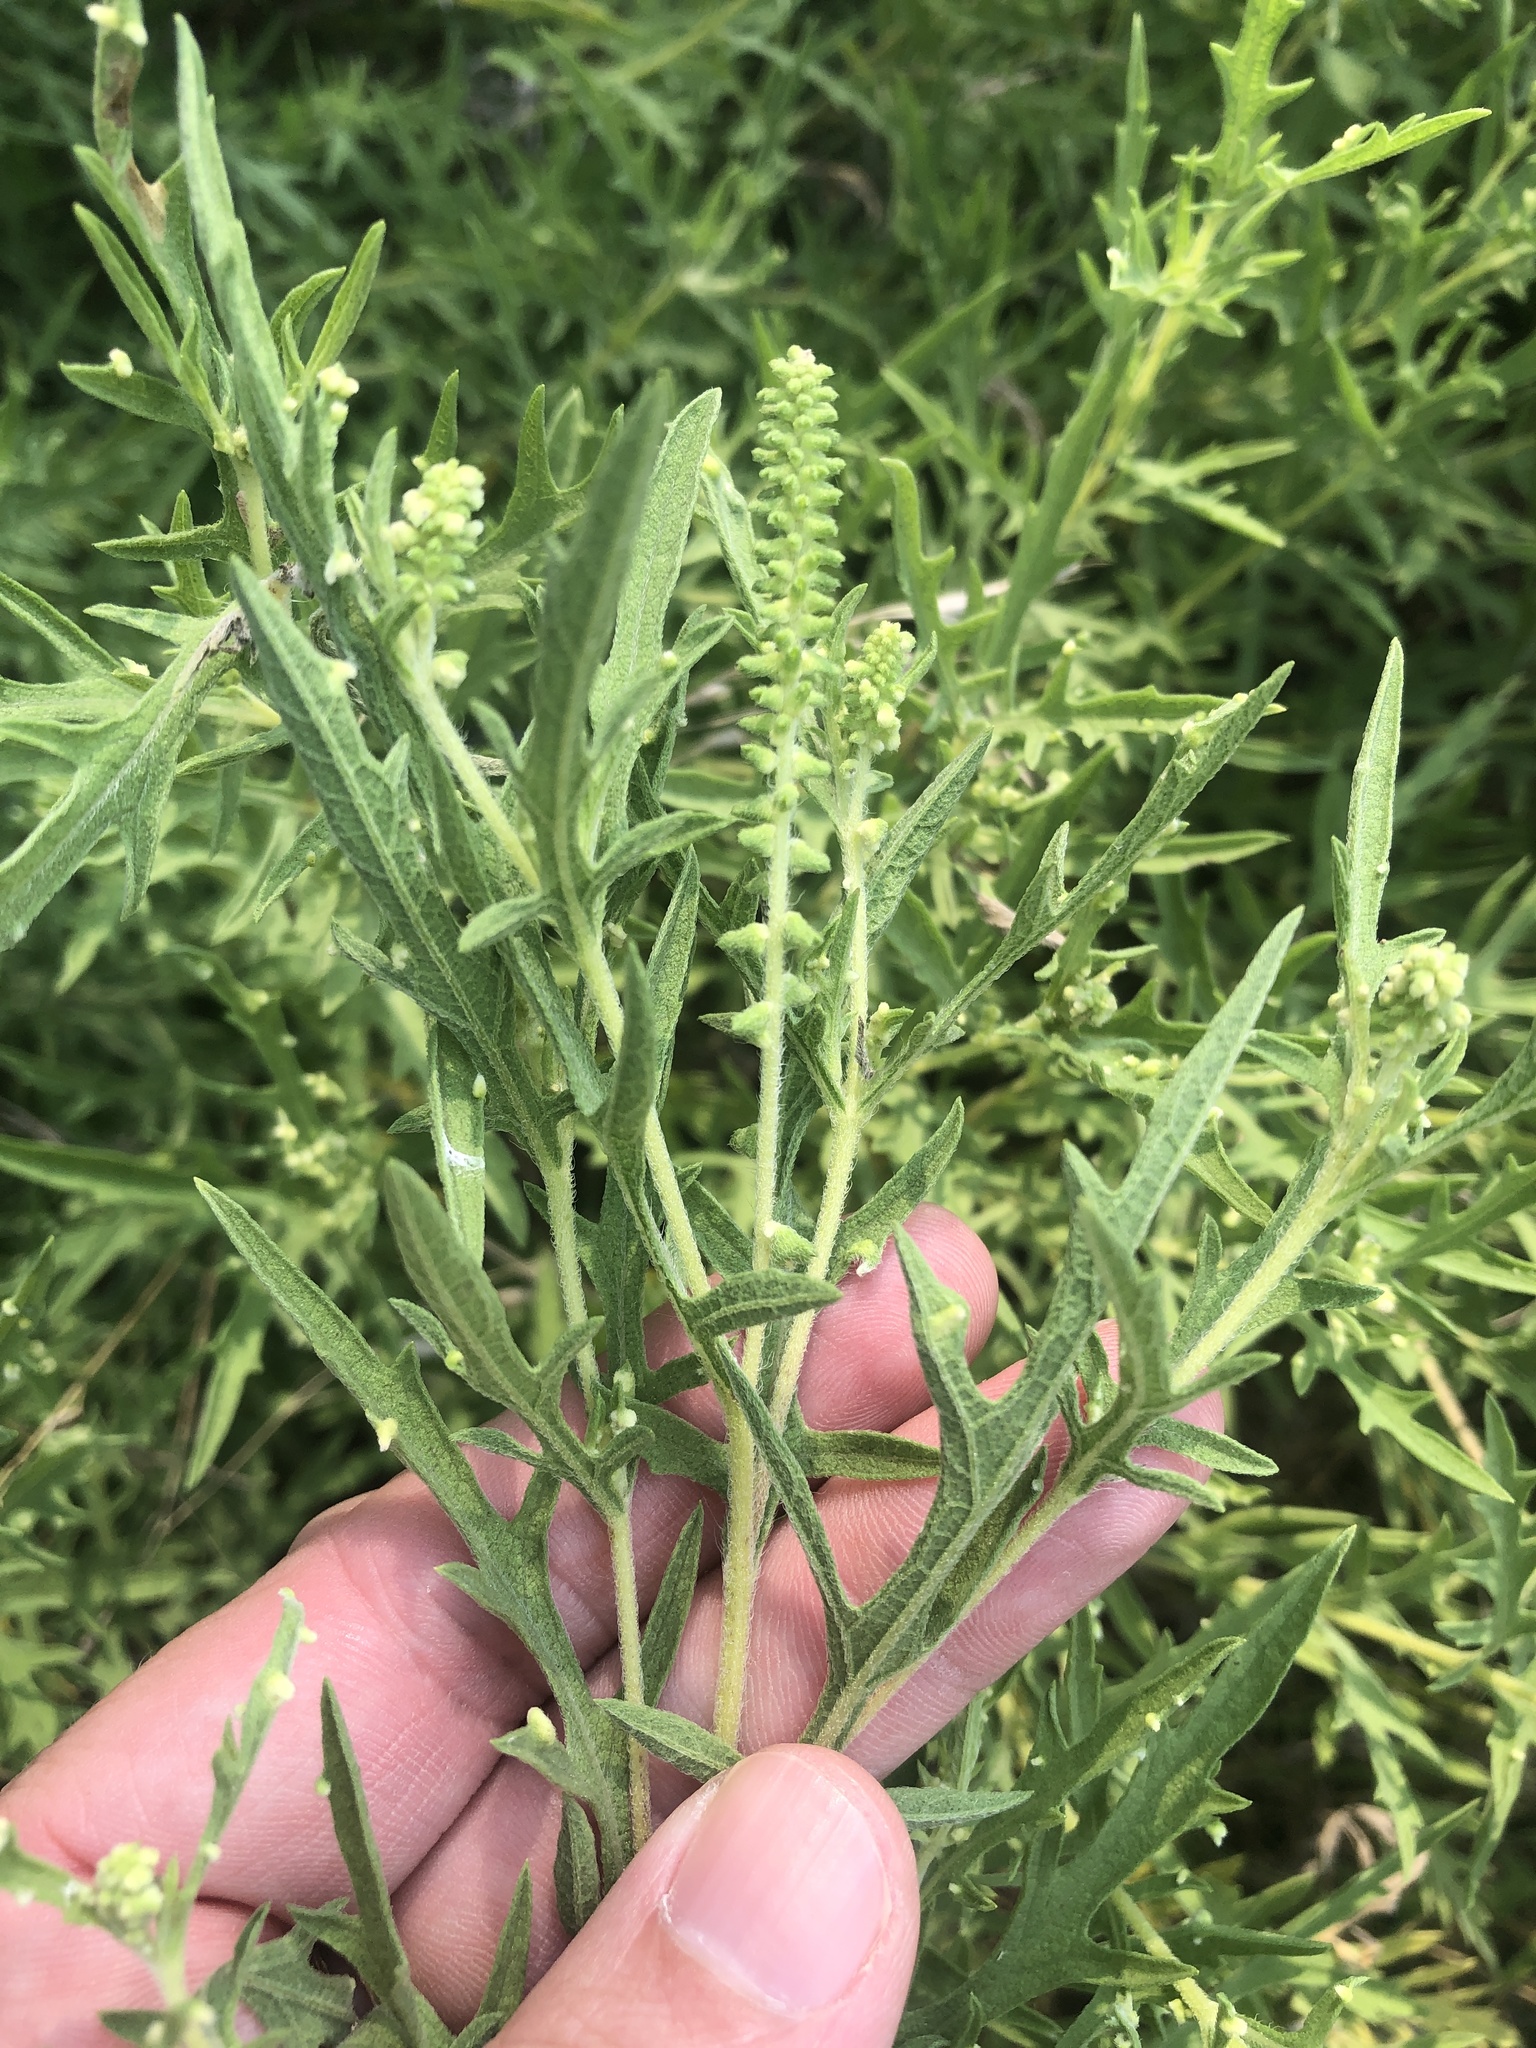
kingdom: Plantae
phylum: Tracheophyta
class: Magnoliopsida
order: Asterales
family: Asteraceae
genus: Ambrosia
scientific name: Ambrosia psilostachya
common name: Perennial ragweed
